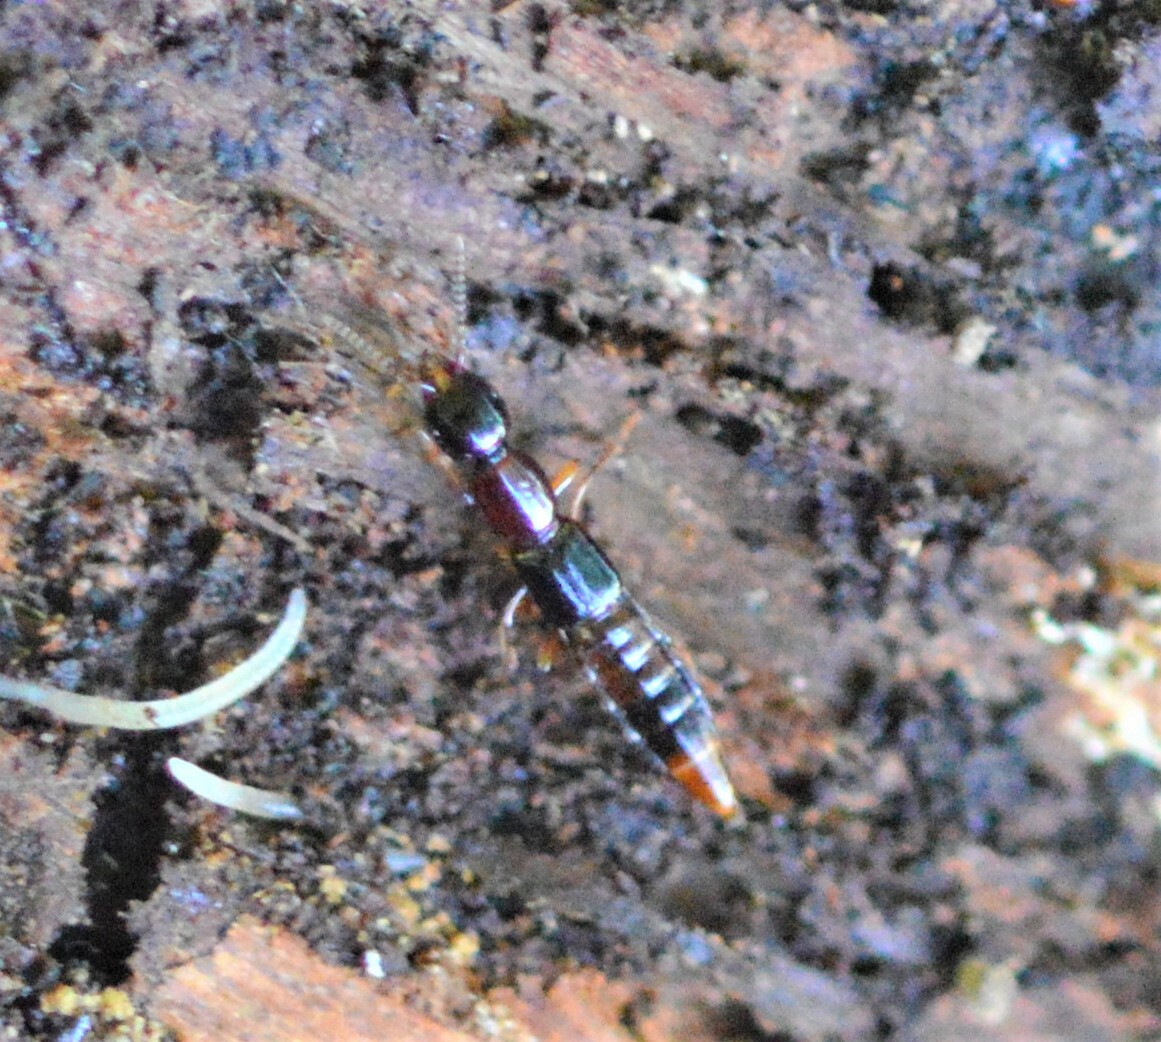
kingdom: Animalia
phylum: Arthropoda
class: Insecta
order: Coleoptera
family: Staphylinidae
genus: Atrecus
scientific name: Atrecus affinis
